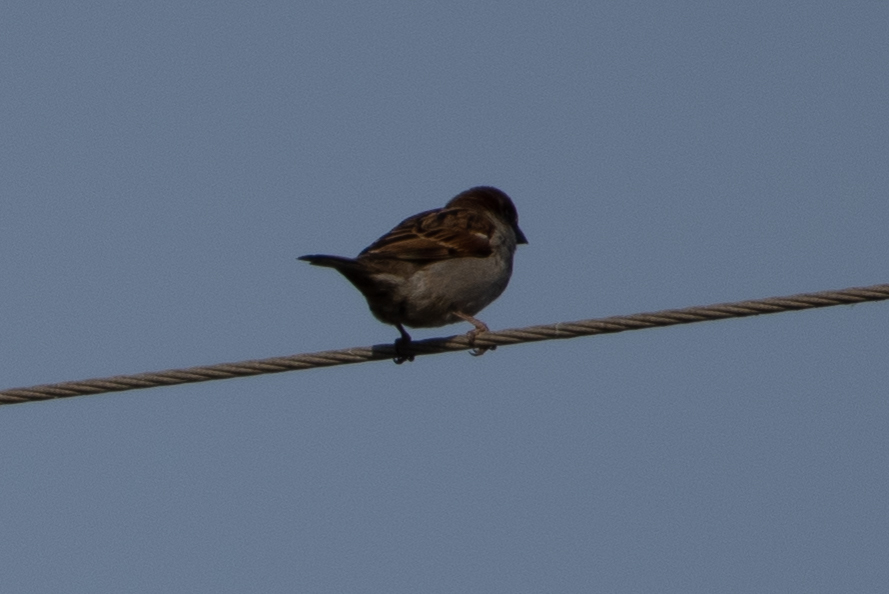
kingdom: Animalia
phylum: Chordata
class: Aves
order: Passeriformes
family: Passeridae
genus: Passer
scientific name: Passer domesticus
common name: House sparrow
